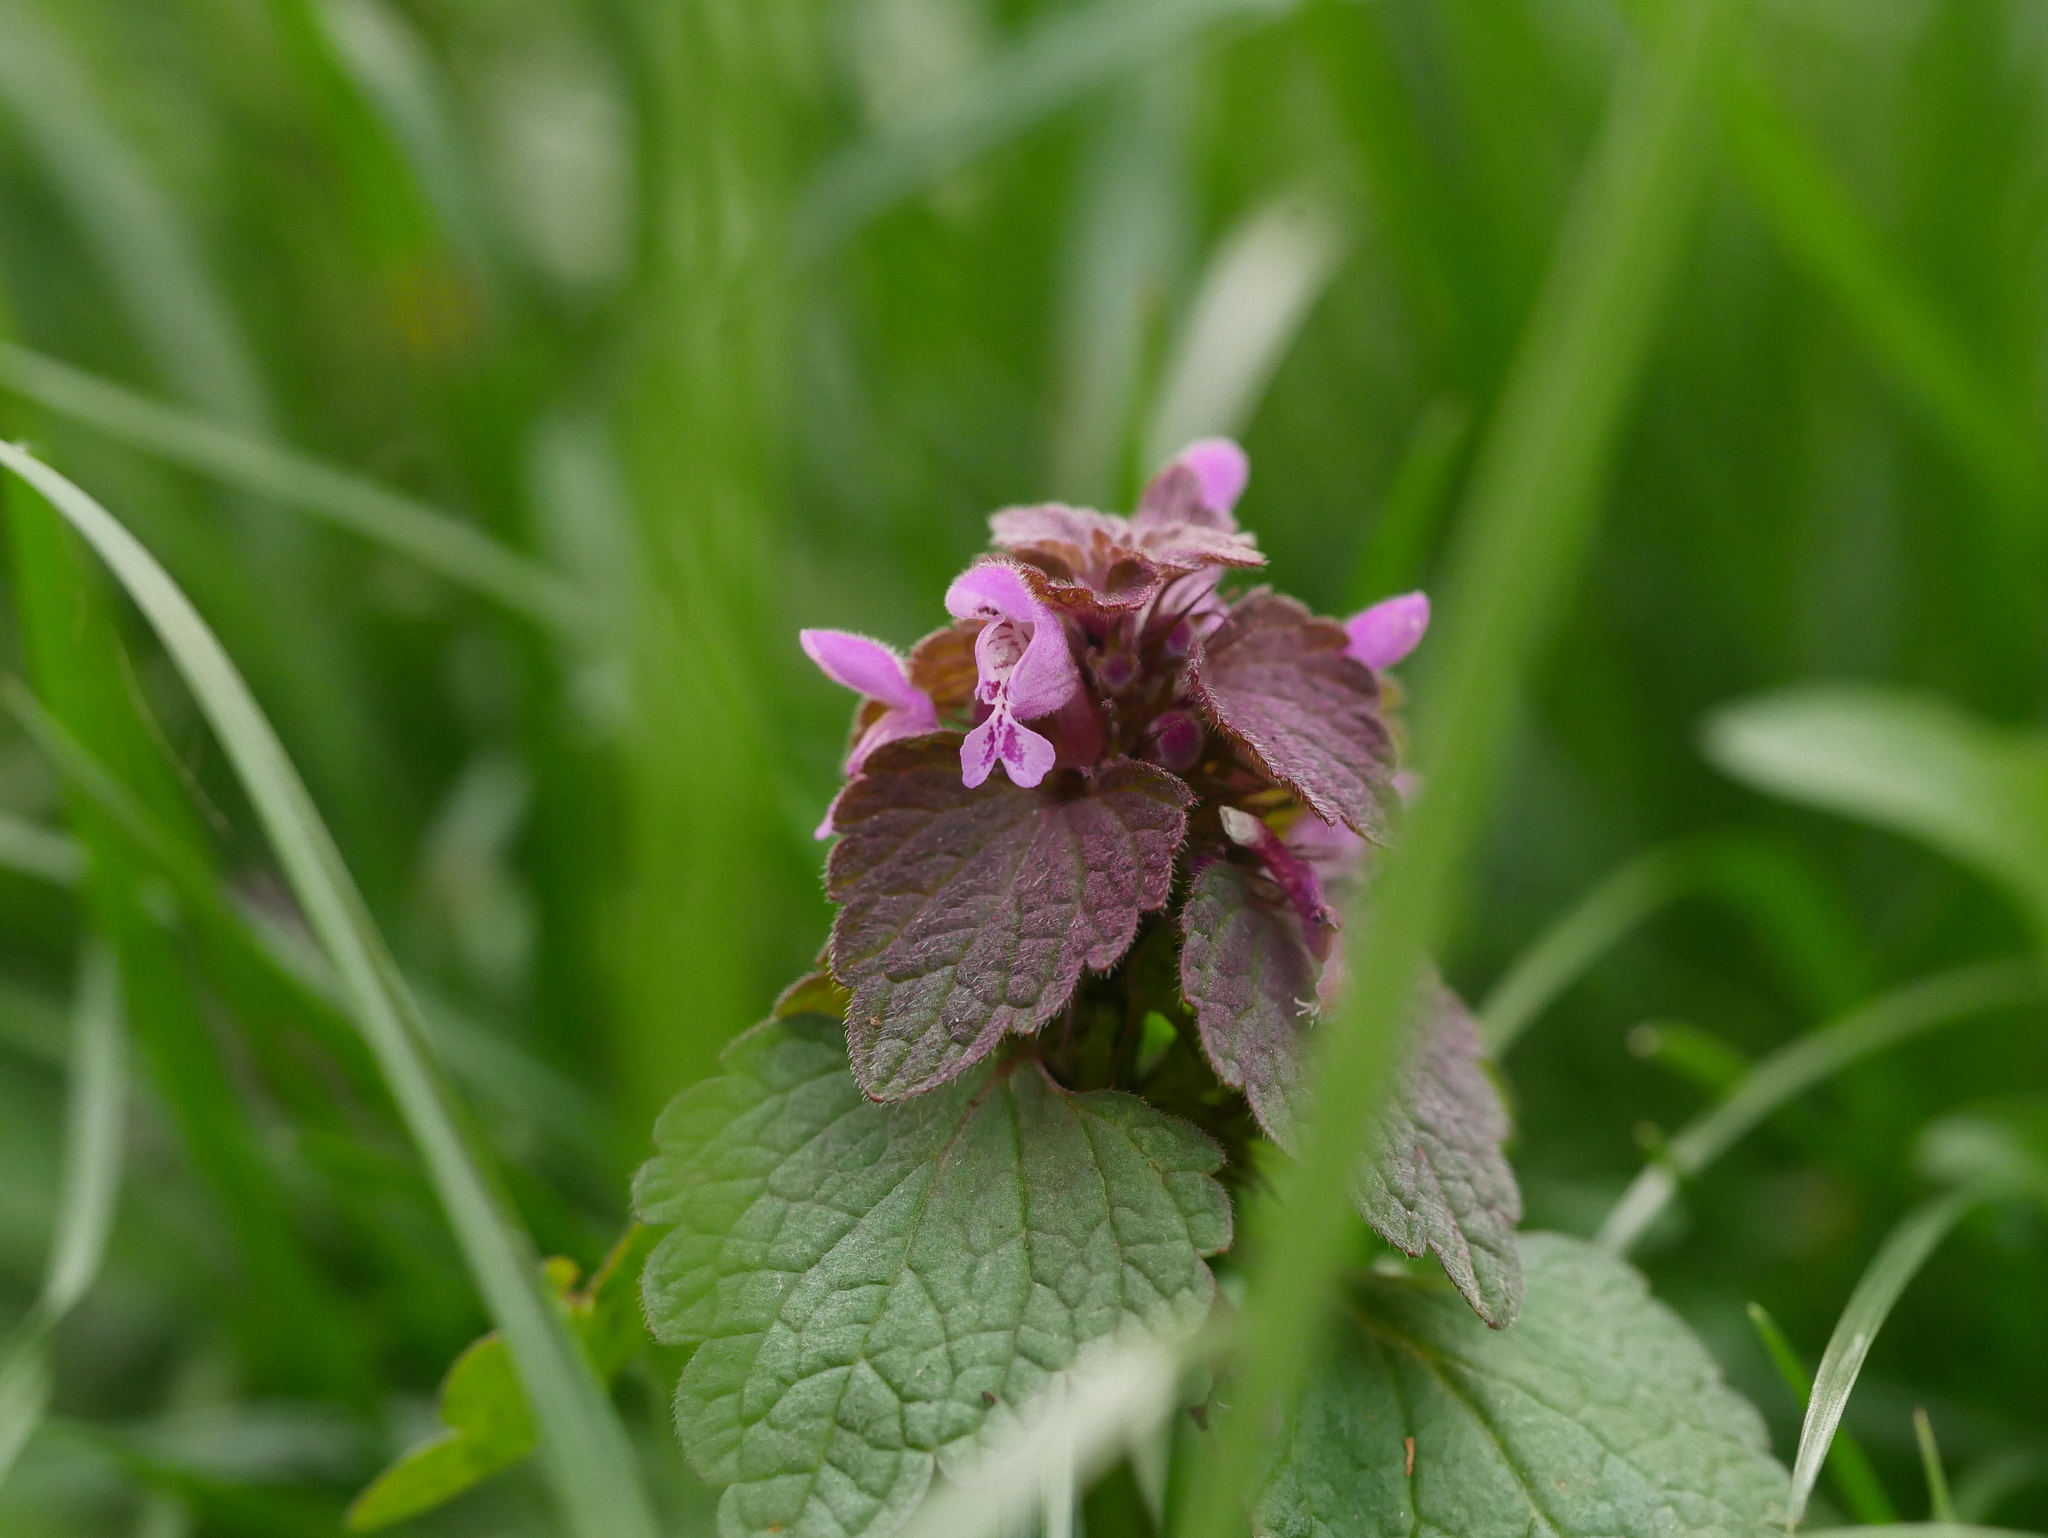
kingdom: Plantae
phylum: Tracheophyta
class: Magnoliopsida
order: Lamiales
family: Lamiaceae
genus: Lamium
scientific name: Lamium purpureum
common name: Red dead-nettle
